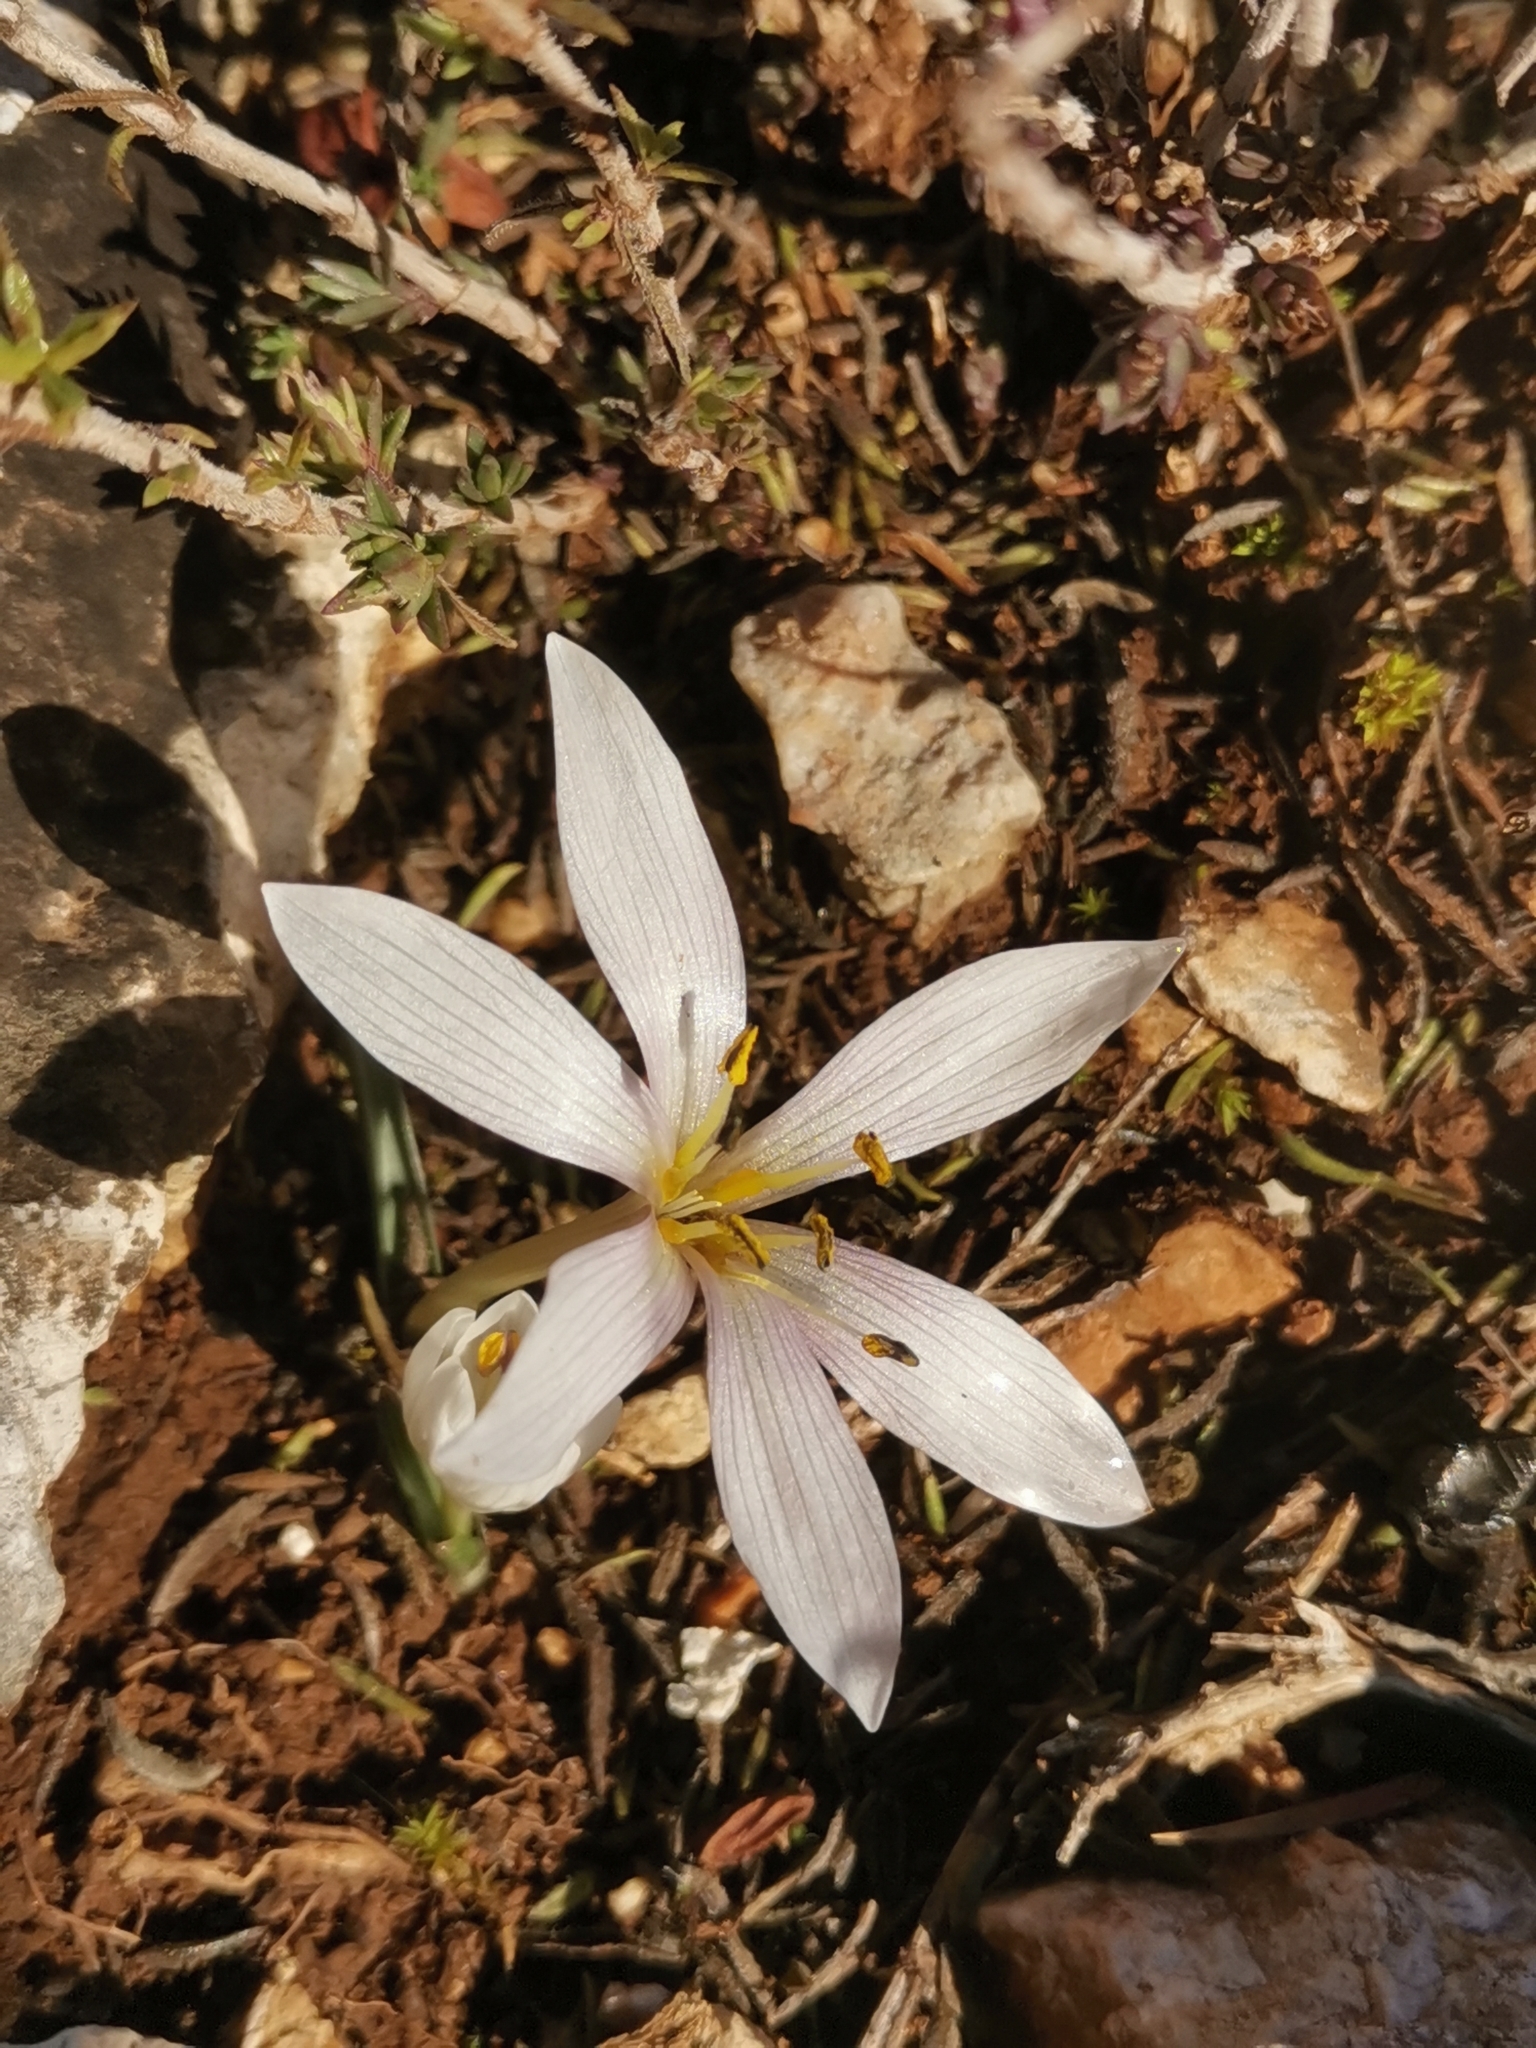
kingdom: Plantae
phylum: Tracheophyta
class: Liliopsida
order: Liliales
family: Colchicaceae
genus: Colchicum
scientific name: Colchicum hungaricum
